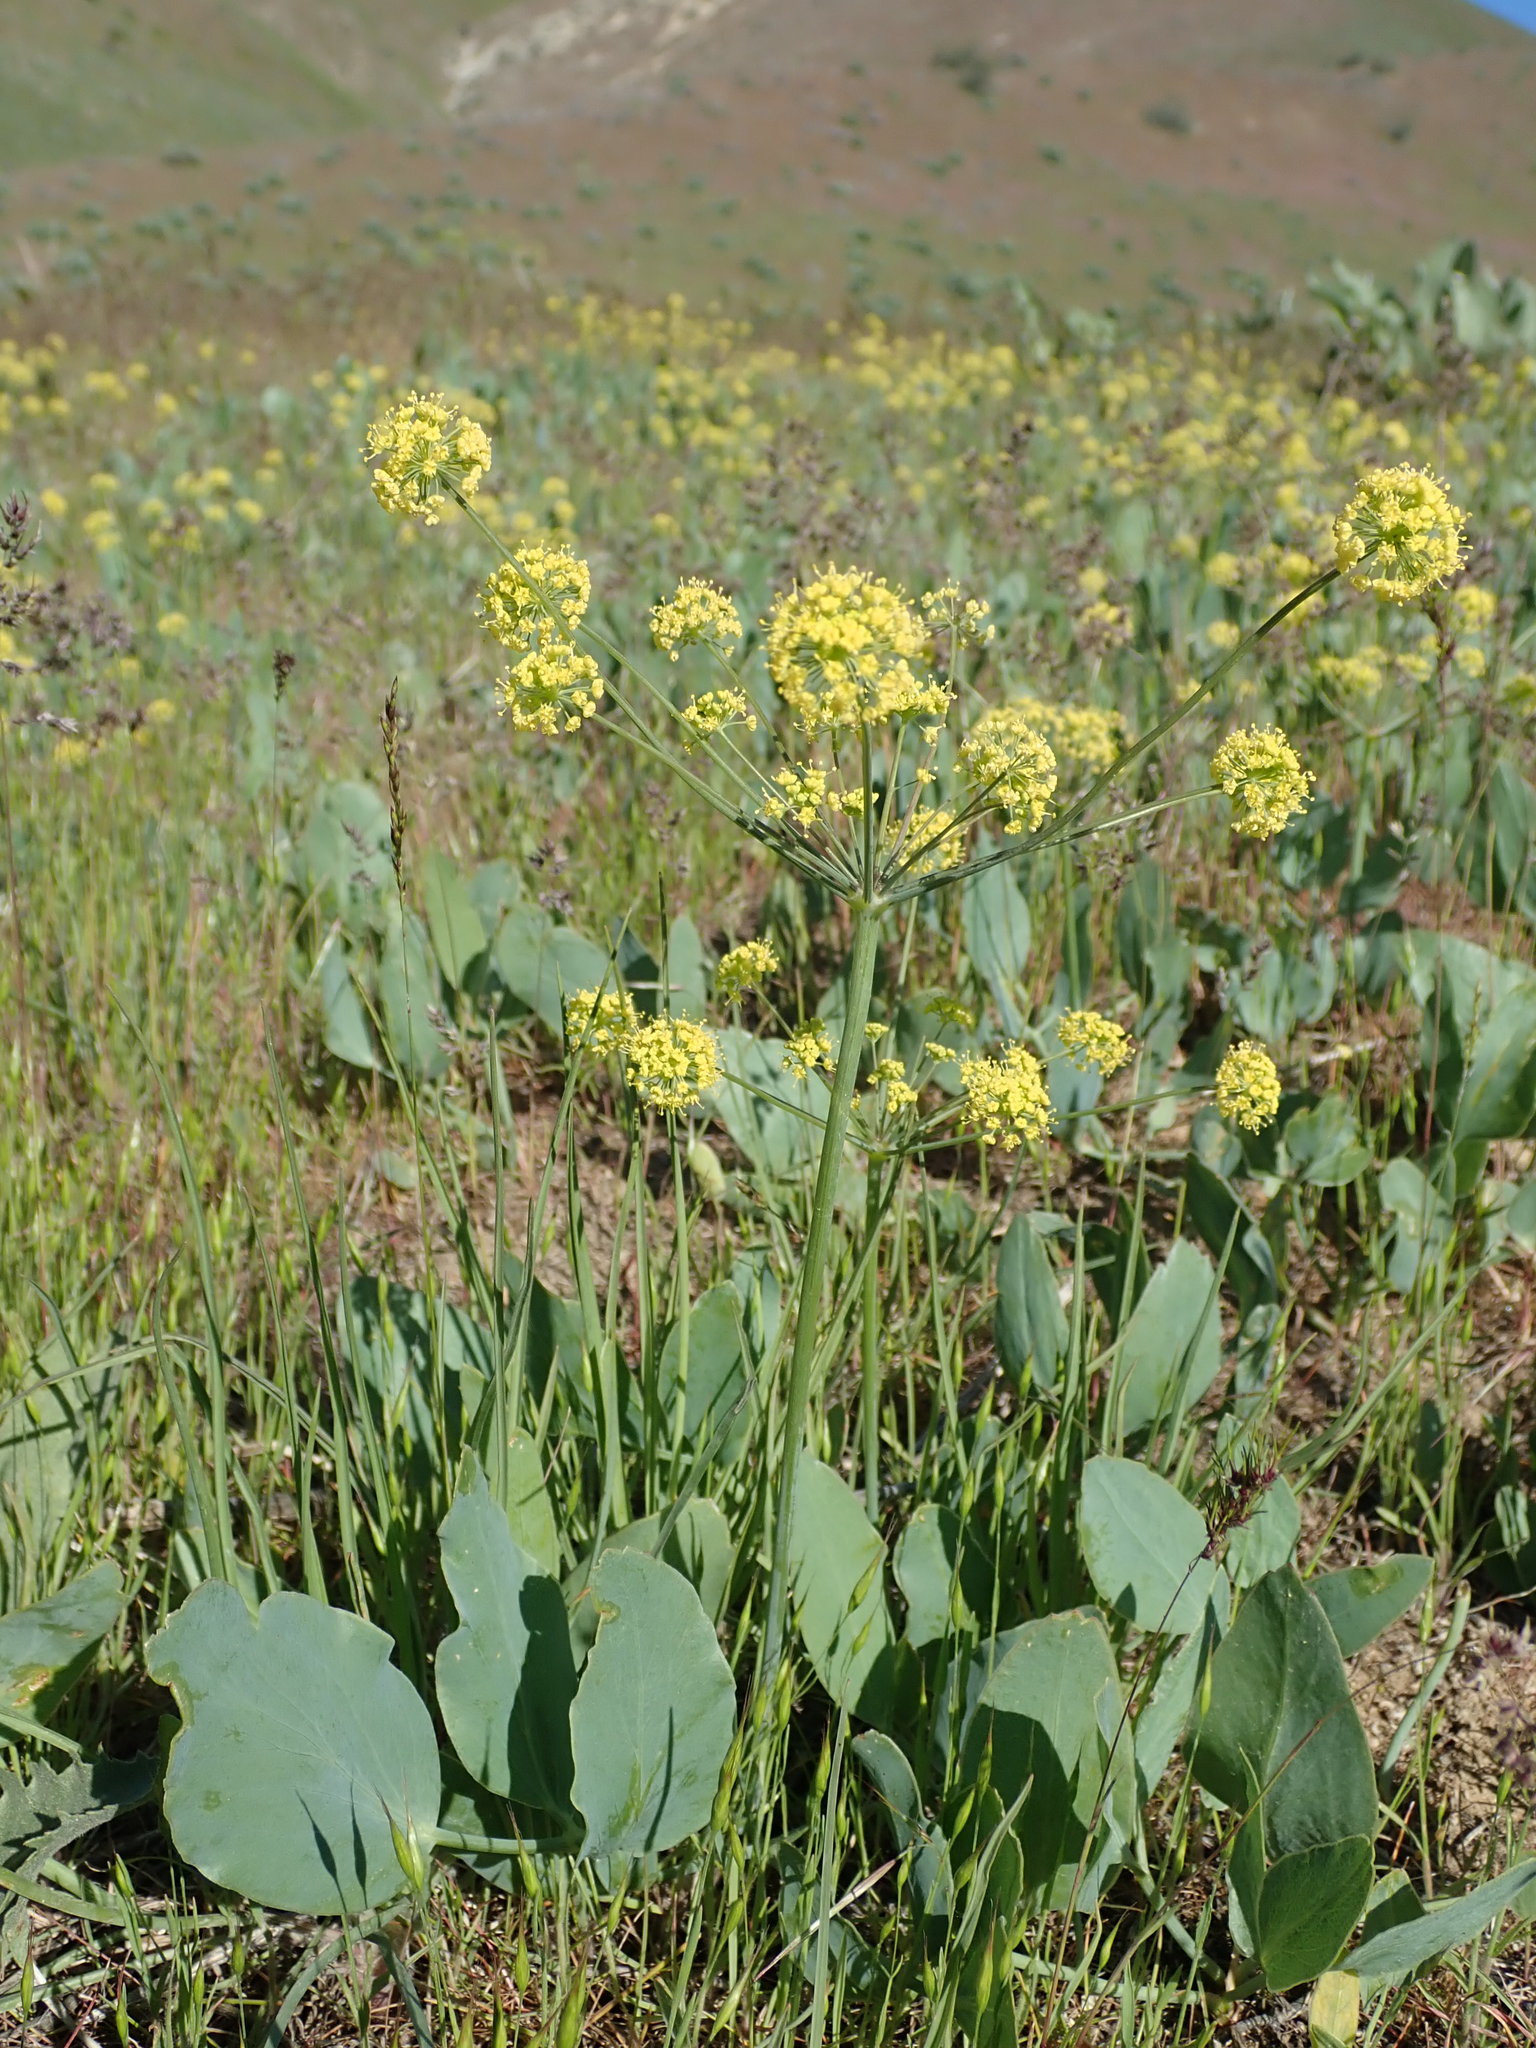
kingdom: Plantae
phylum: Tracheophyta
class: Magnoliopsida
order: Apiales
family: Apiaceae
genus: Lomatium
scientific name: Lomatium nudicaule
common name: Pestle lomatium
